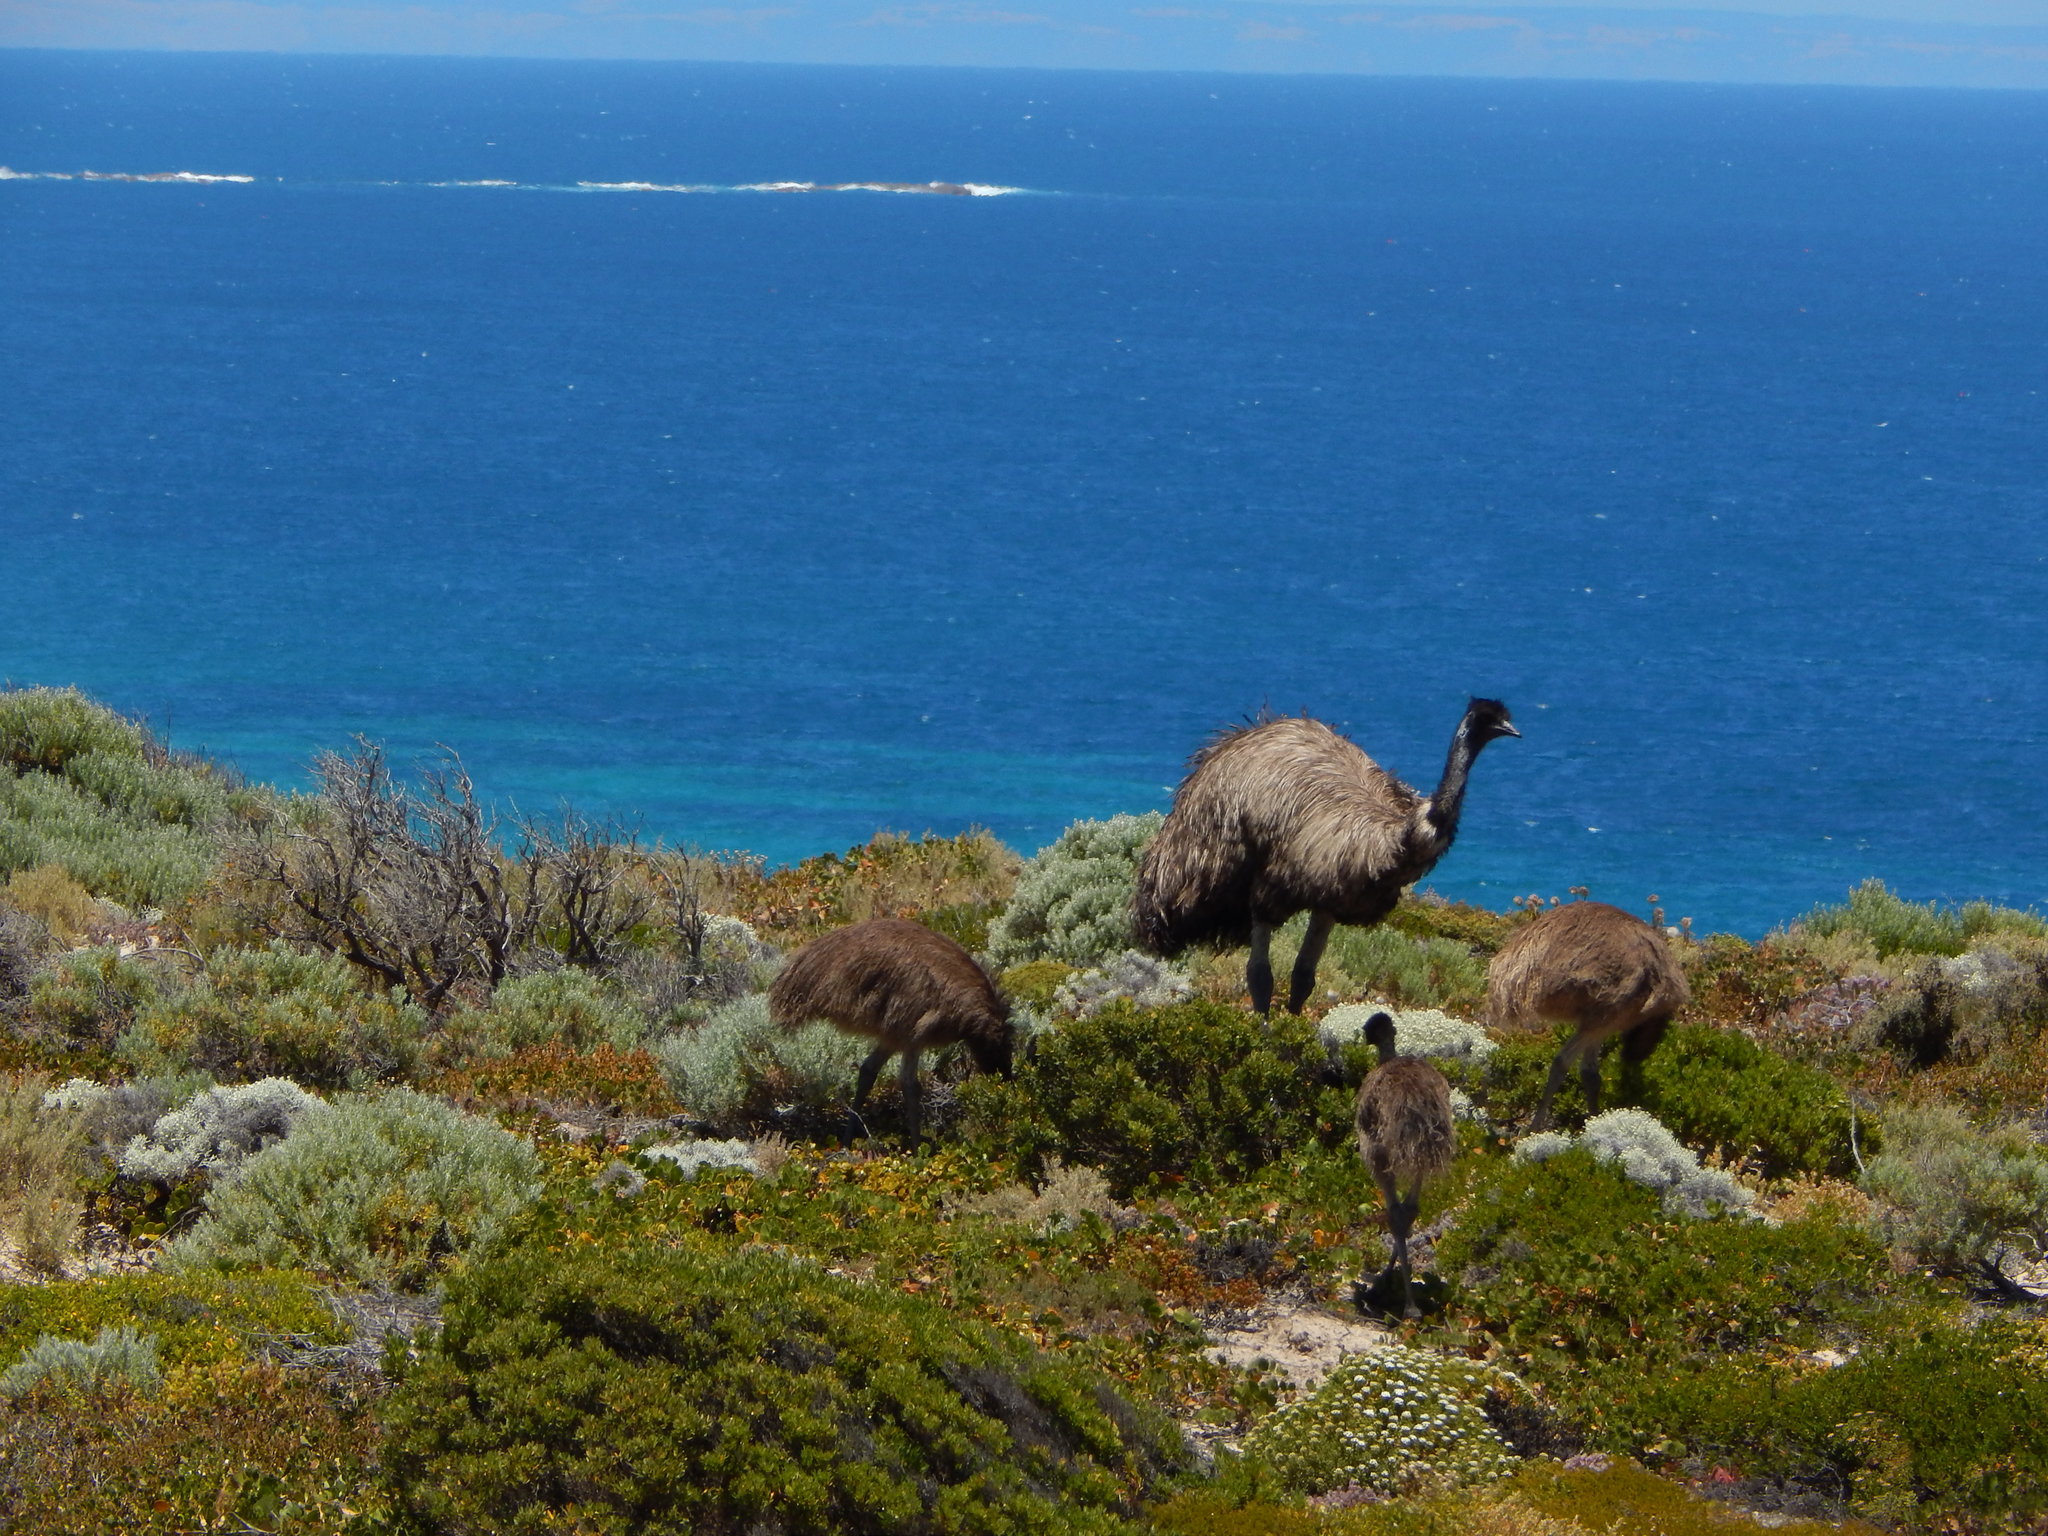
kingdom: Animalia
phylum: Chordata
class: Aves
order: Casuariiformes
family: Dromaiidae
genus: Dromaius
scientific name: Dromaius novaehollandiae
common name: Emu
